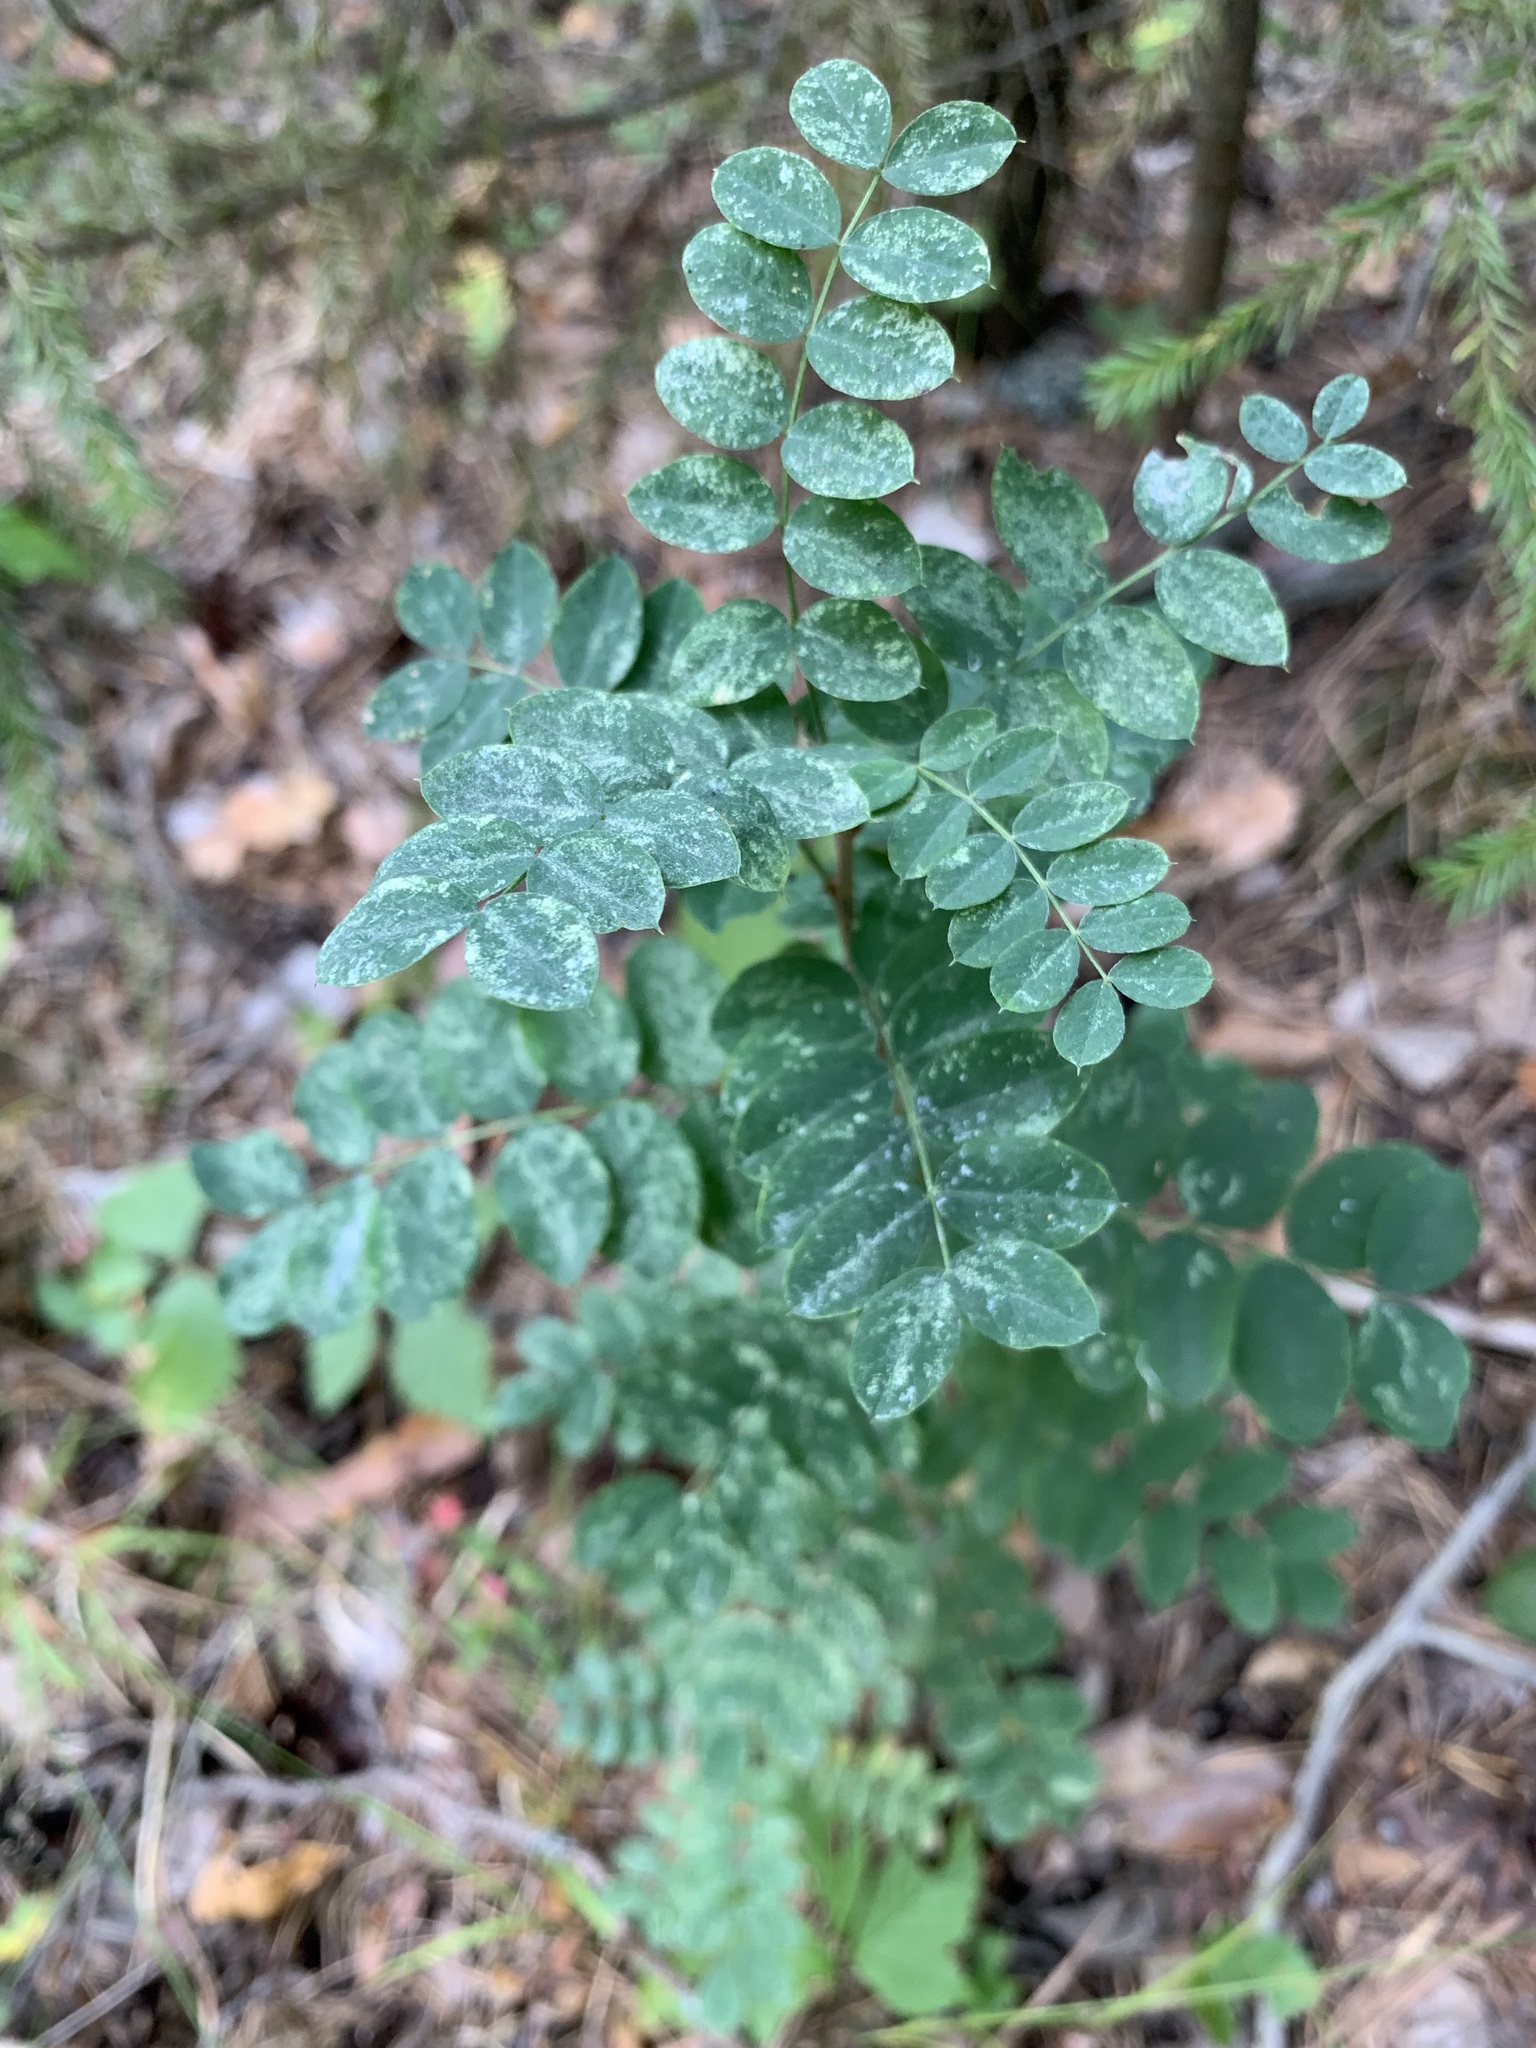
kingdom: Plantae
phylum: Tracheophyta
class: Magnoliopsida
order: Fabales
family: Fabaceae
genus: Caragana
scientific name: Caragana arborescens
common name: Siberian peashrub
